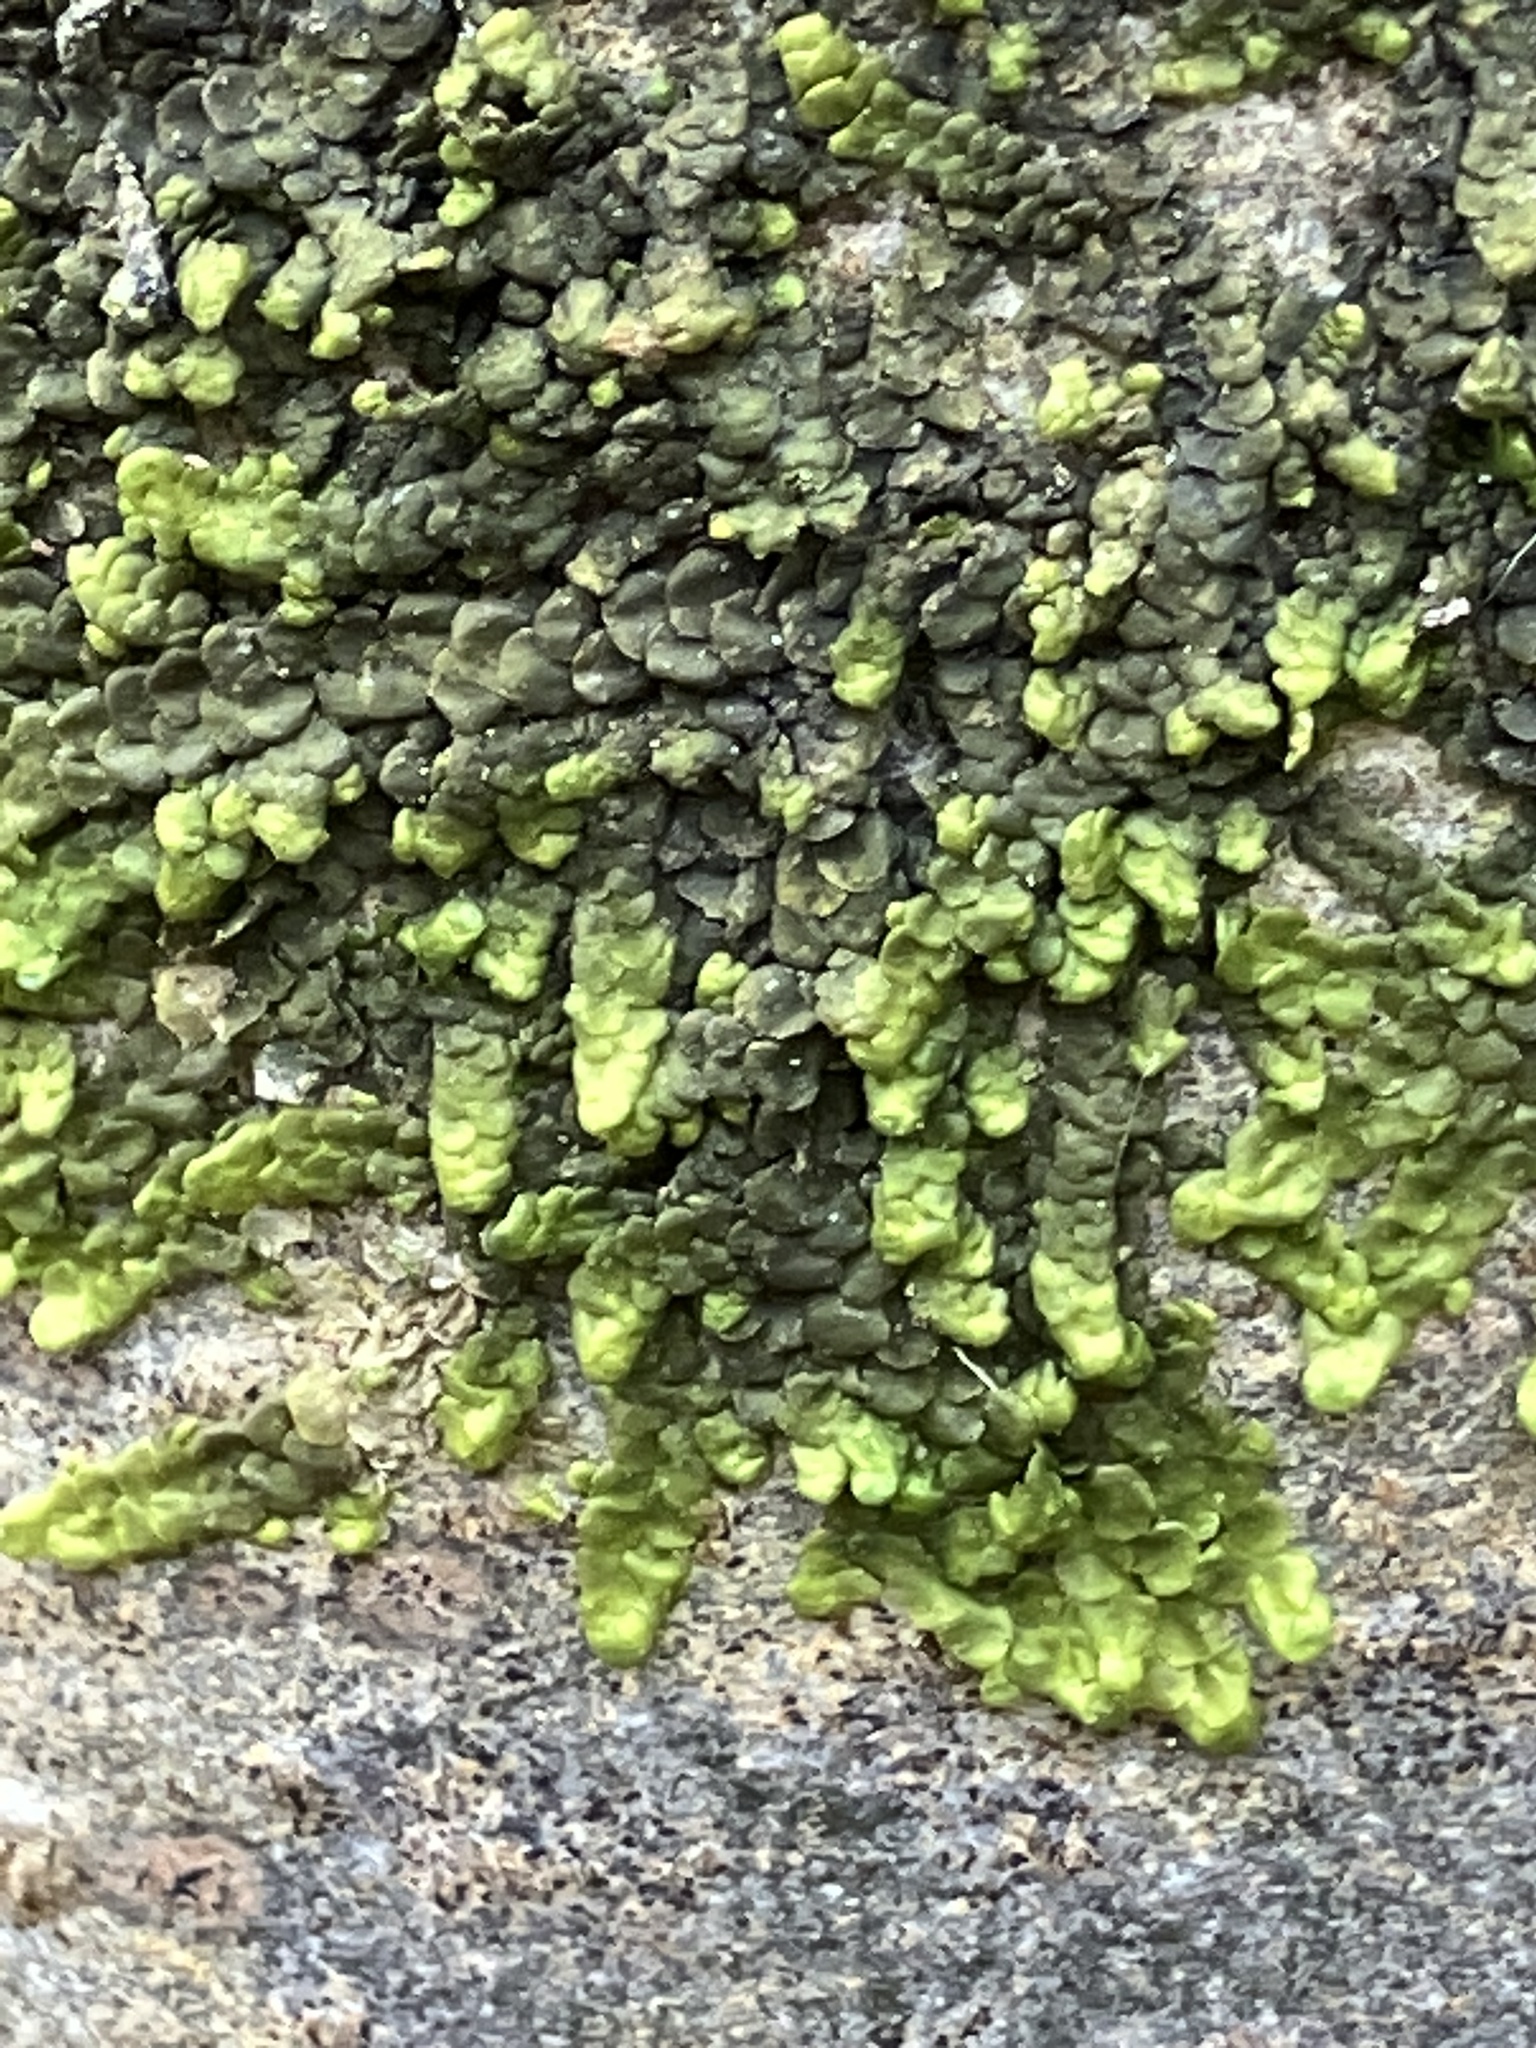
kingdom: Plantae
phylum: Marchantiophyta
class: Jungermanniopsida
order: Porellales
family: Radulaceae
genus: Radula
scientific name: Radula complanata
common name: Flat-leaved scalewort
